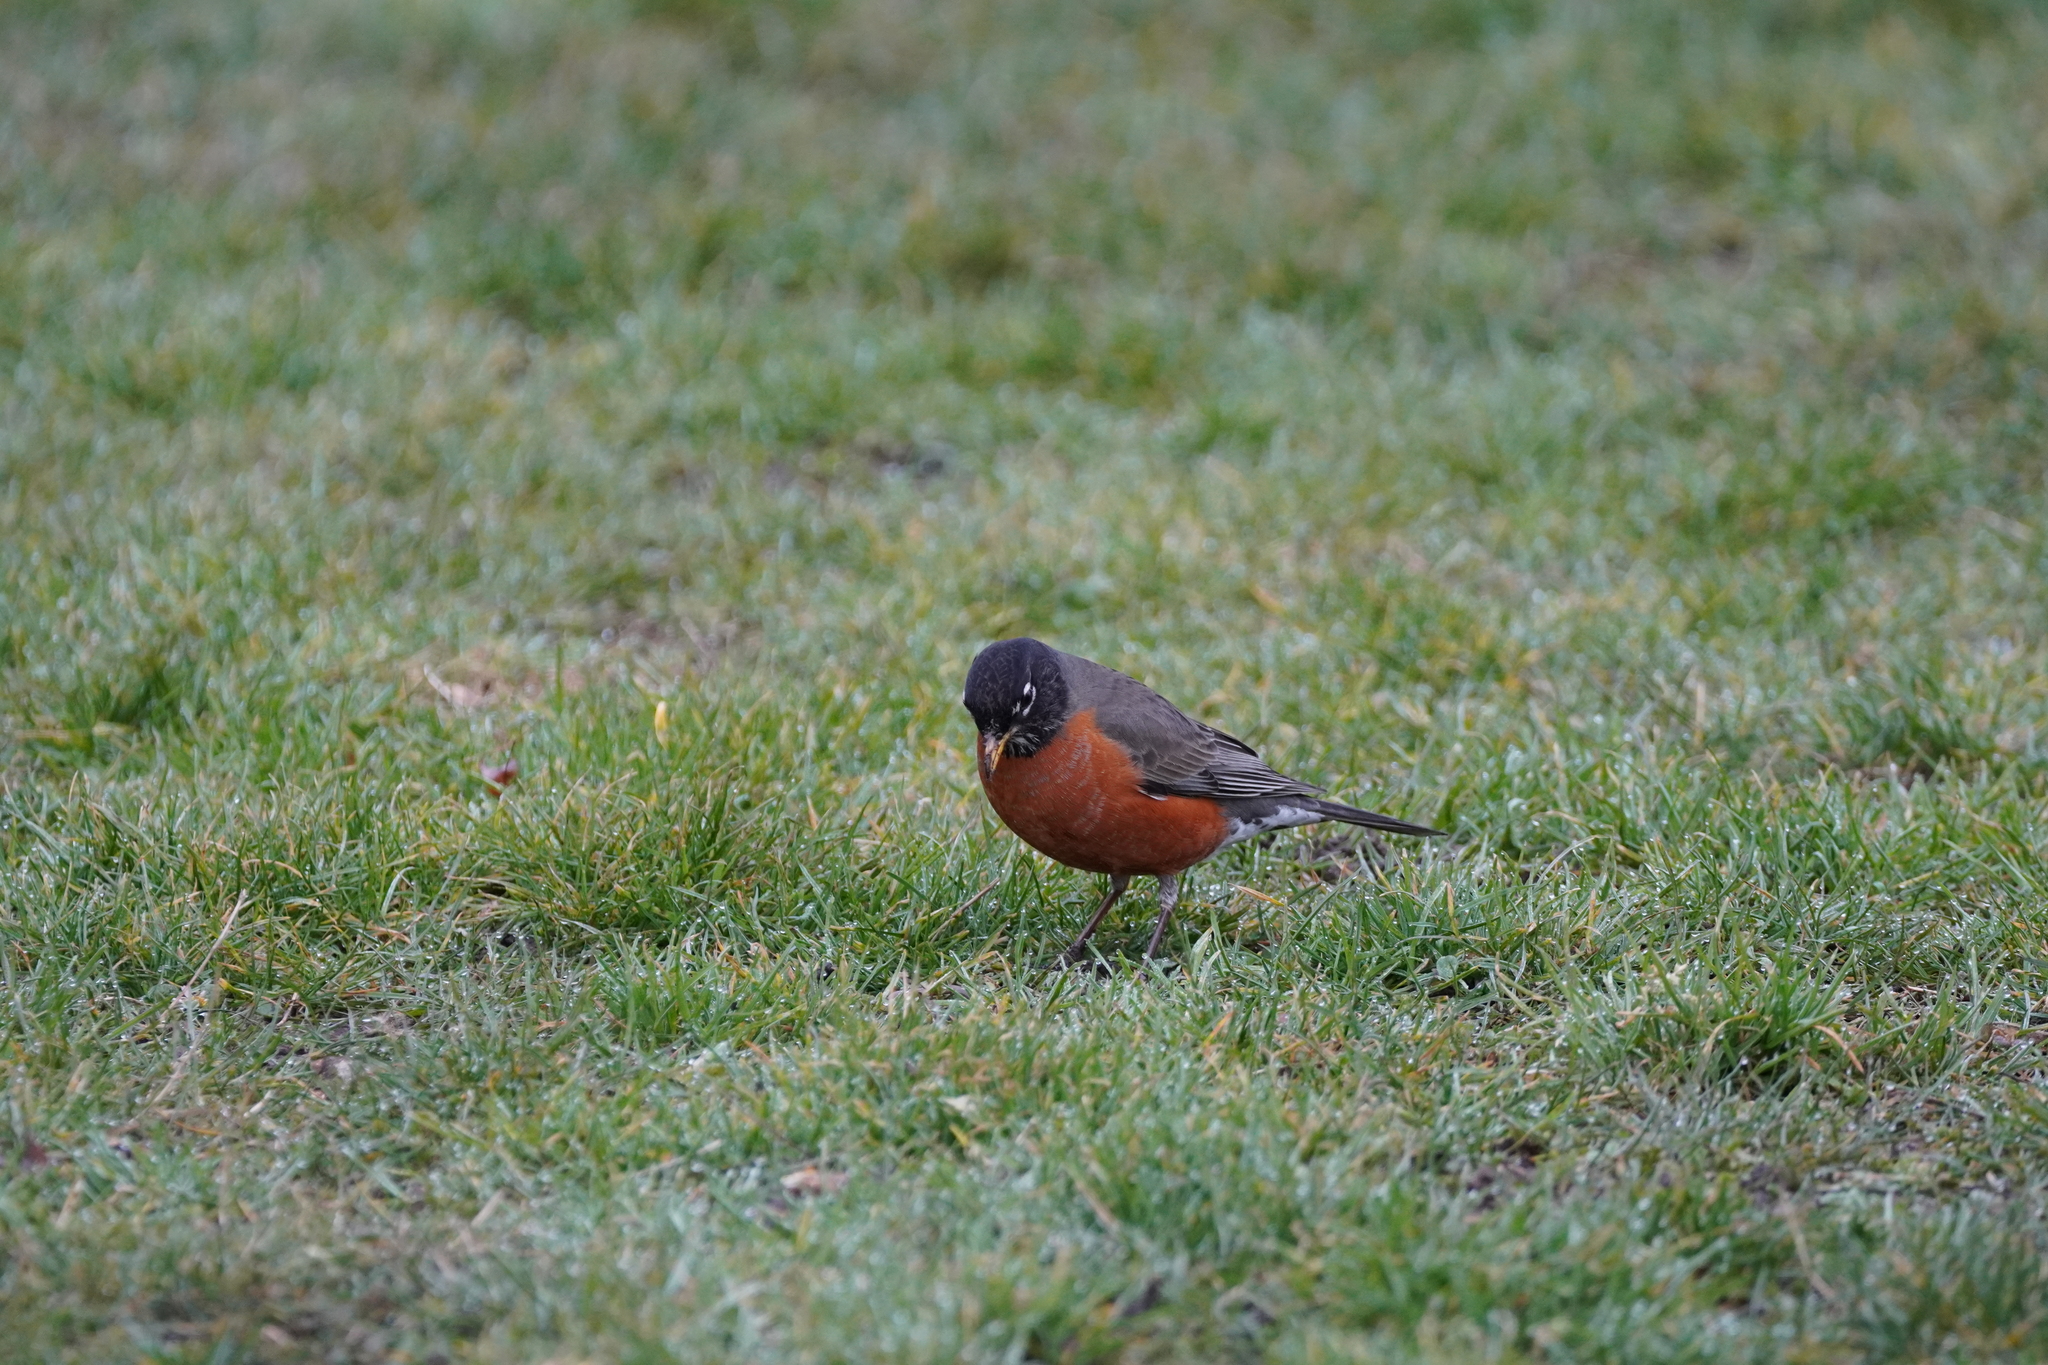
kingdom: Animalia
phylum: Chordata
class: Aves
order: Passeriformes
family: Turdidae
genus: Turdus
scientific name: Turdus migratorius
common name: American robin
